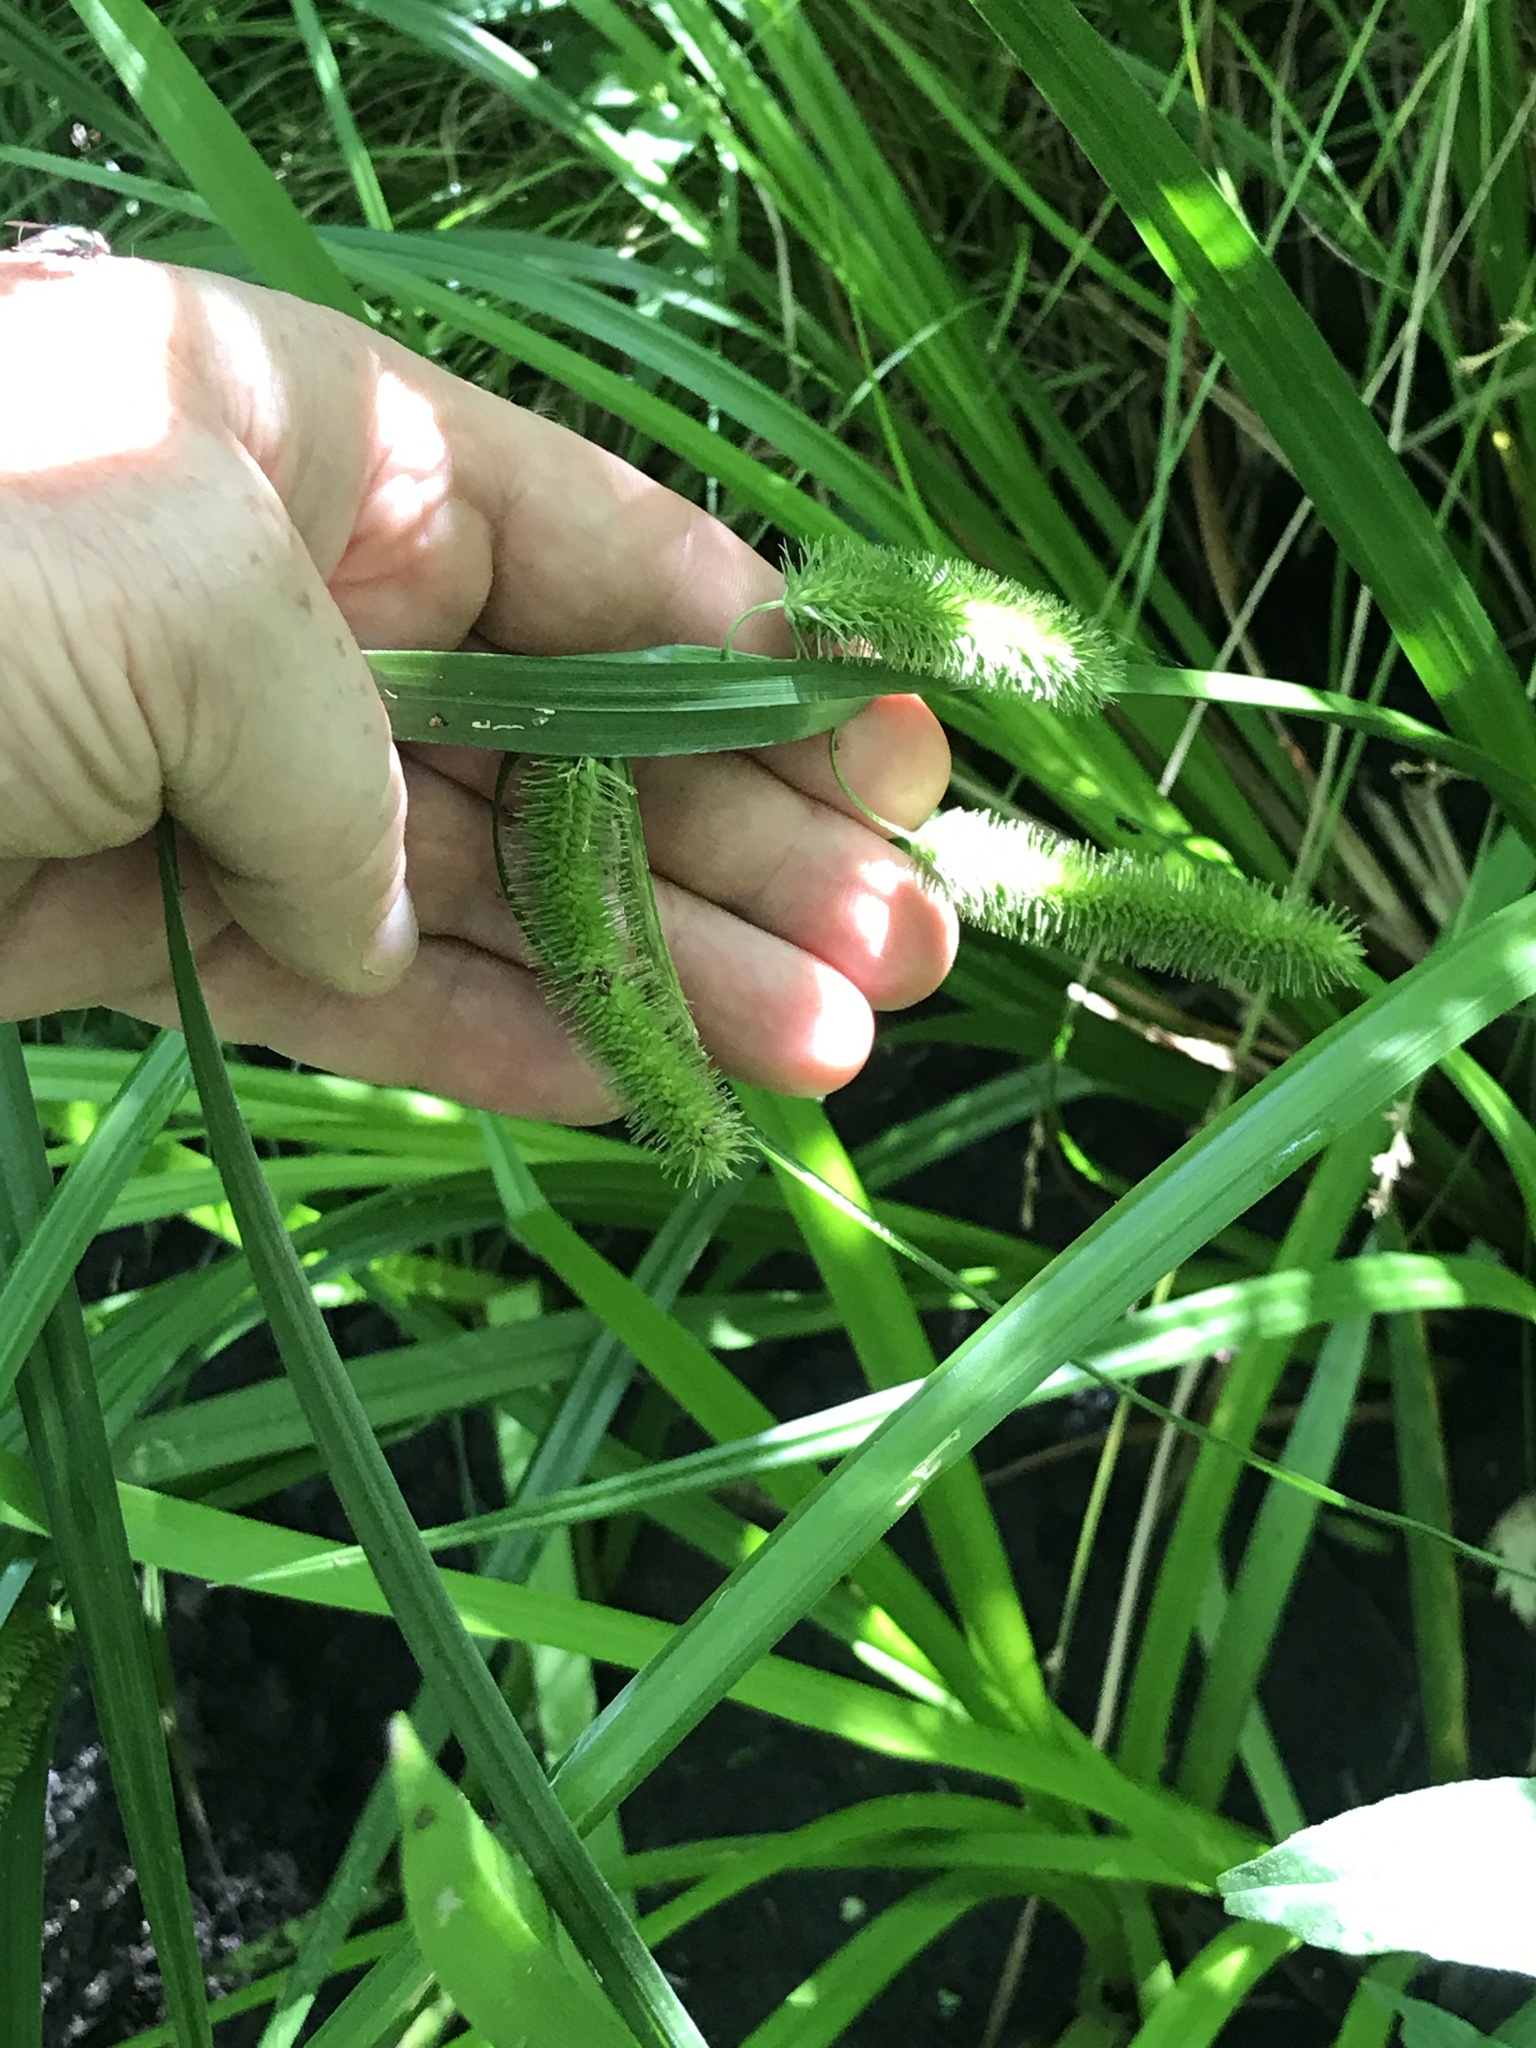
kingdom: Plantae
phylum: Tracheophyta
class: Liliopsida
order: Poales
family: Cyperaceae
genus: Carex
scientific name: Carex comosa
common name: Bristly sedge
